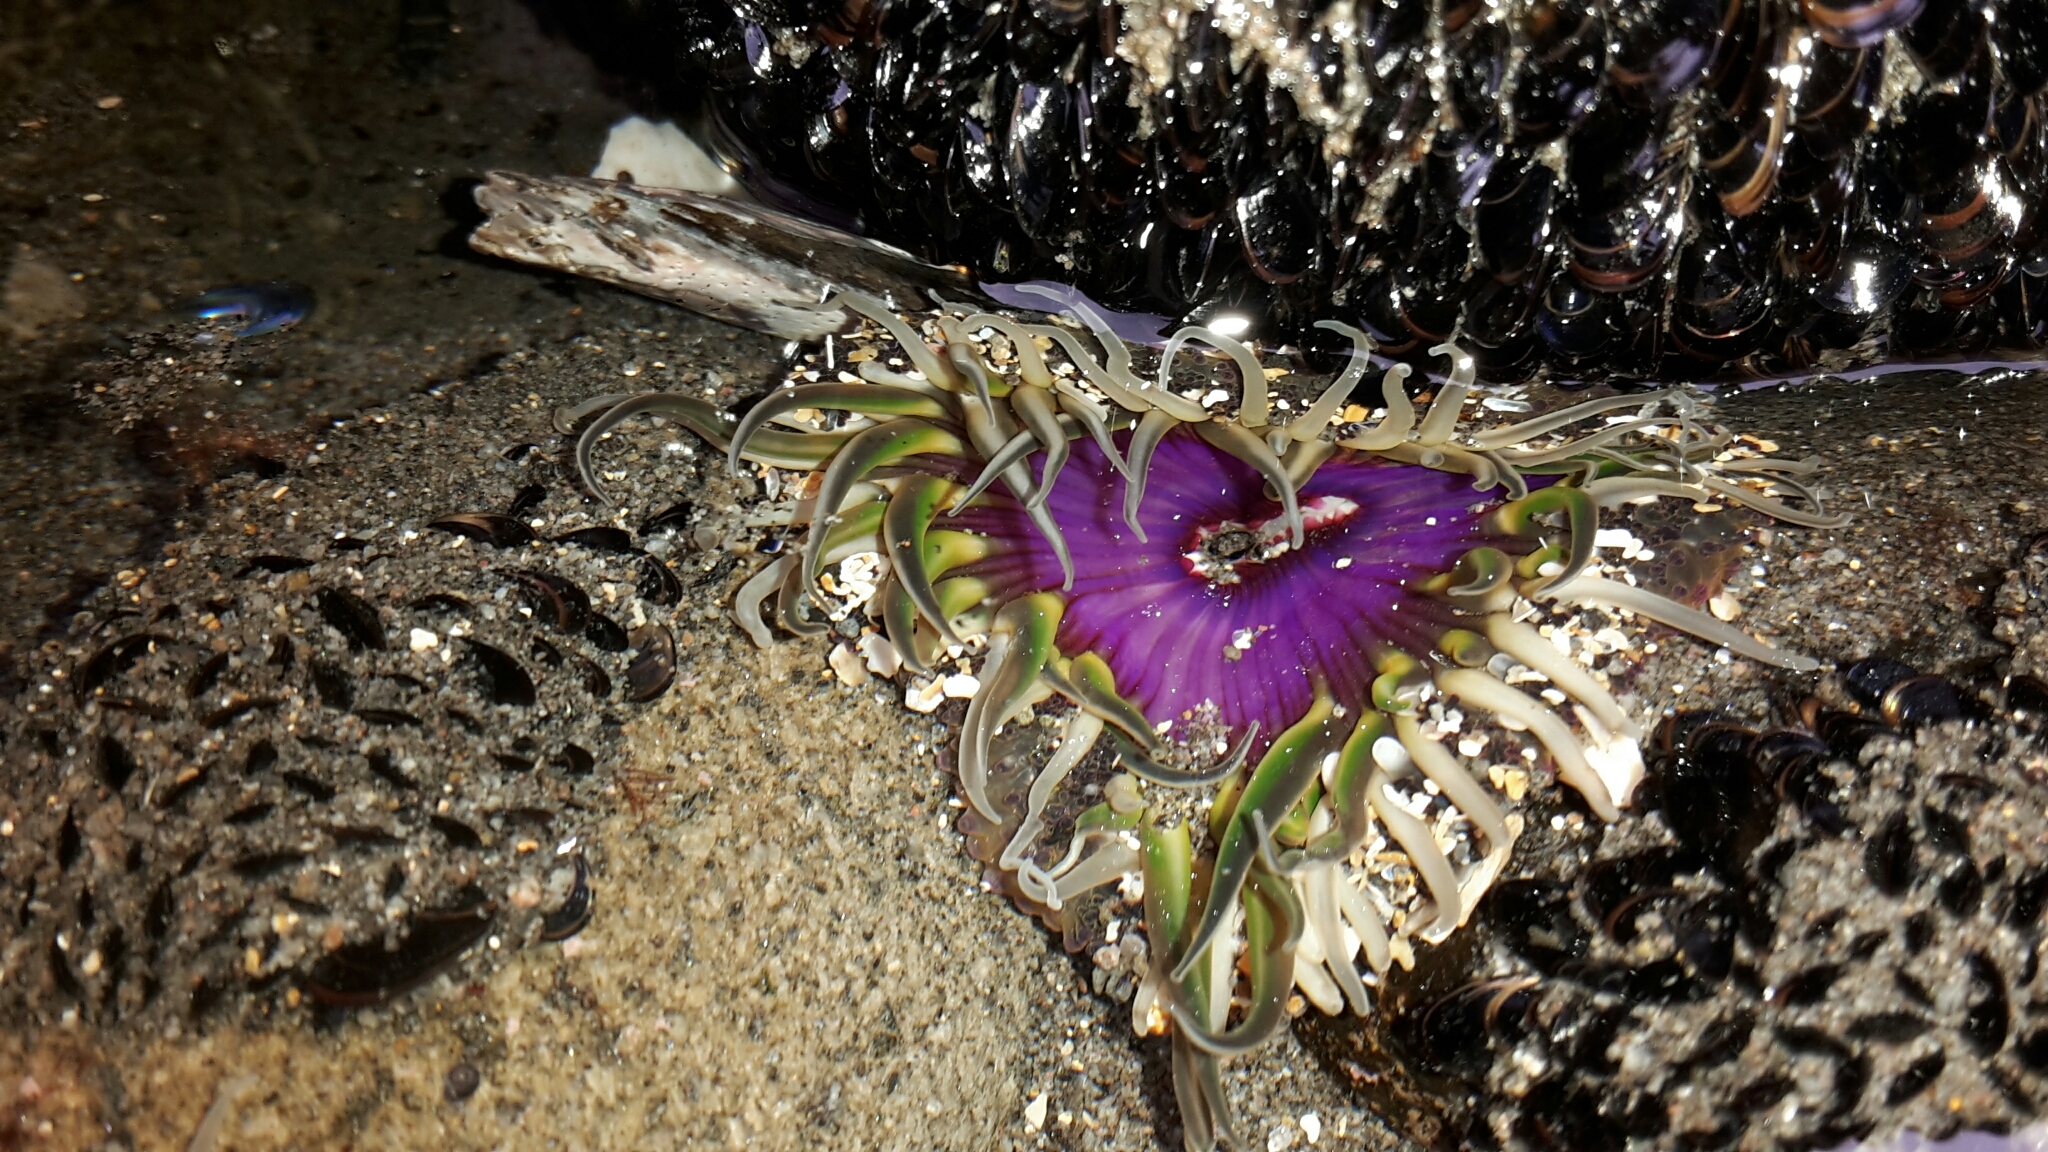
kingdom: Animalia
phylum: Cnidaria
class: Anthozoa
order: Actiniaria
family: Actiniidae
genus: Oulactis
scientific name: Oulactis magna
